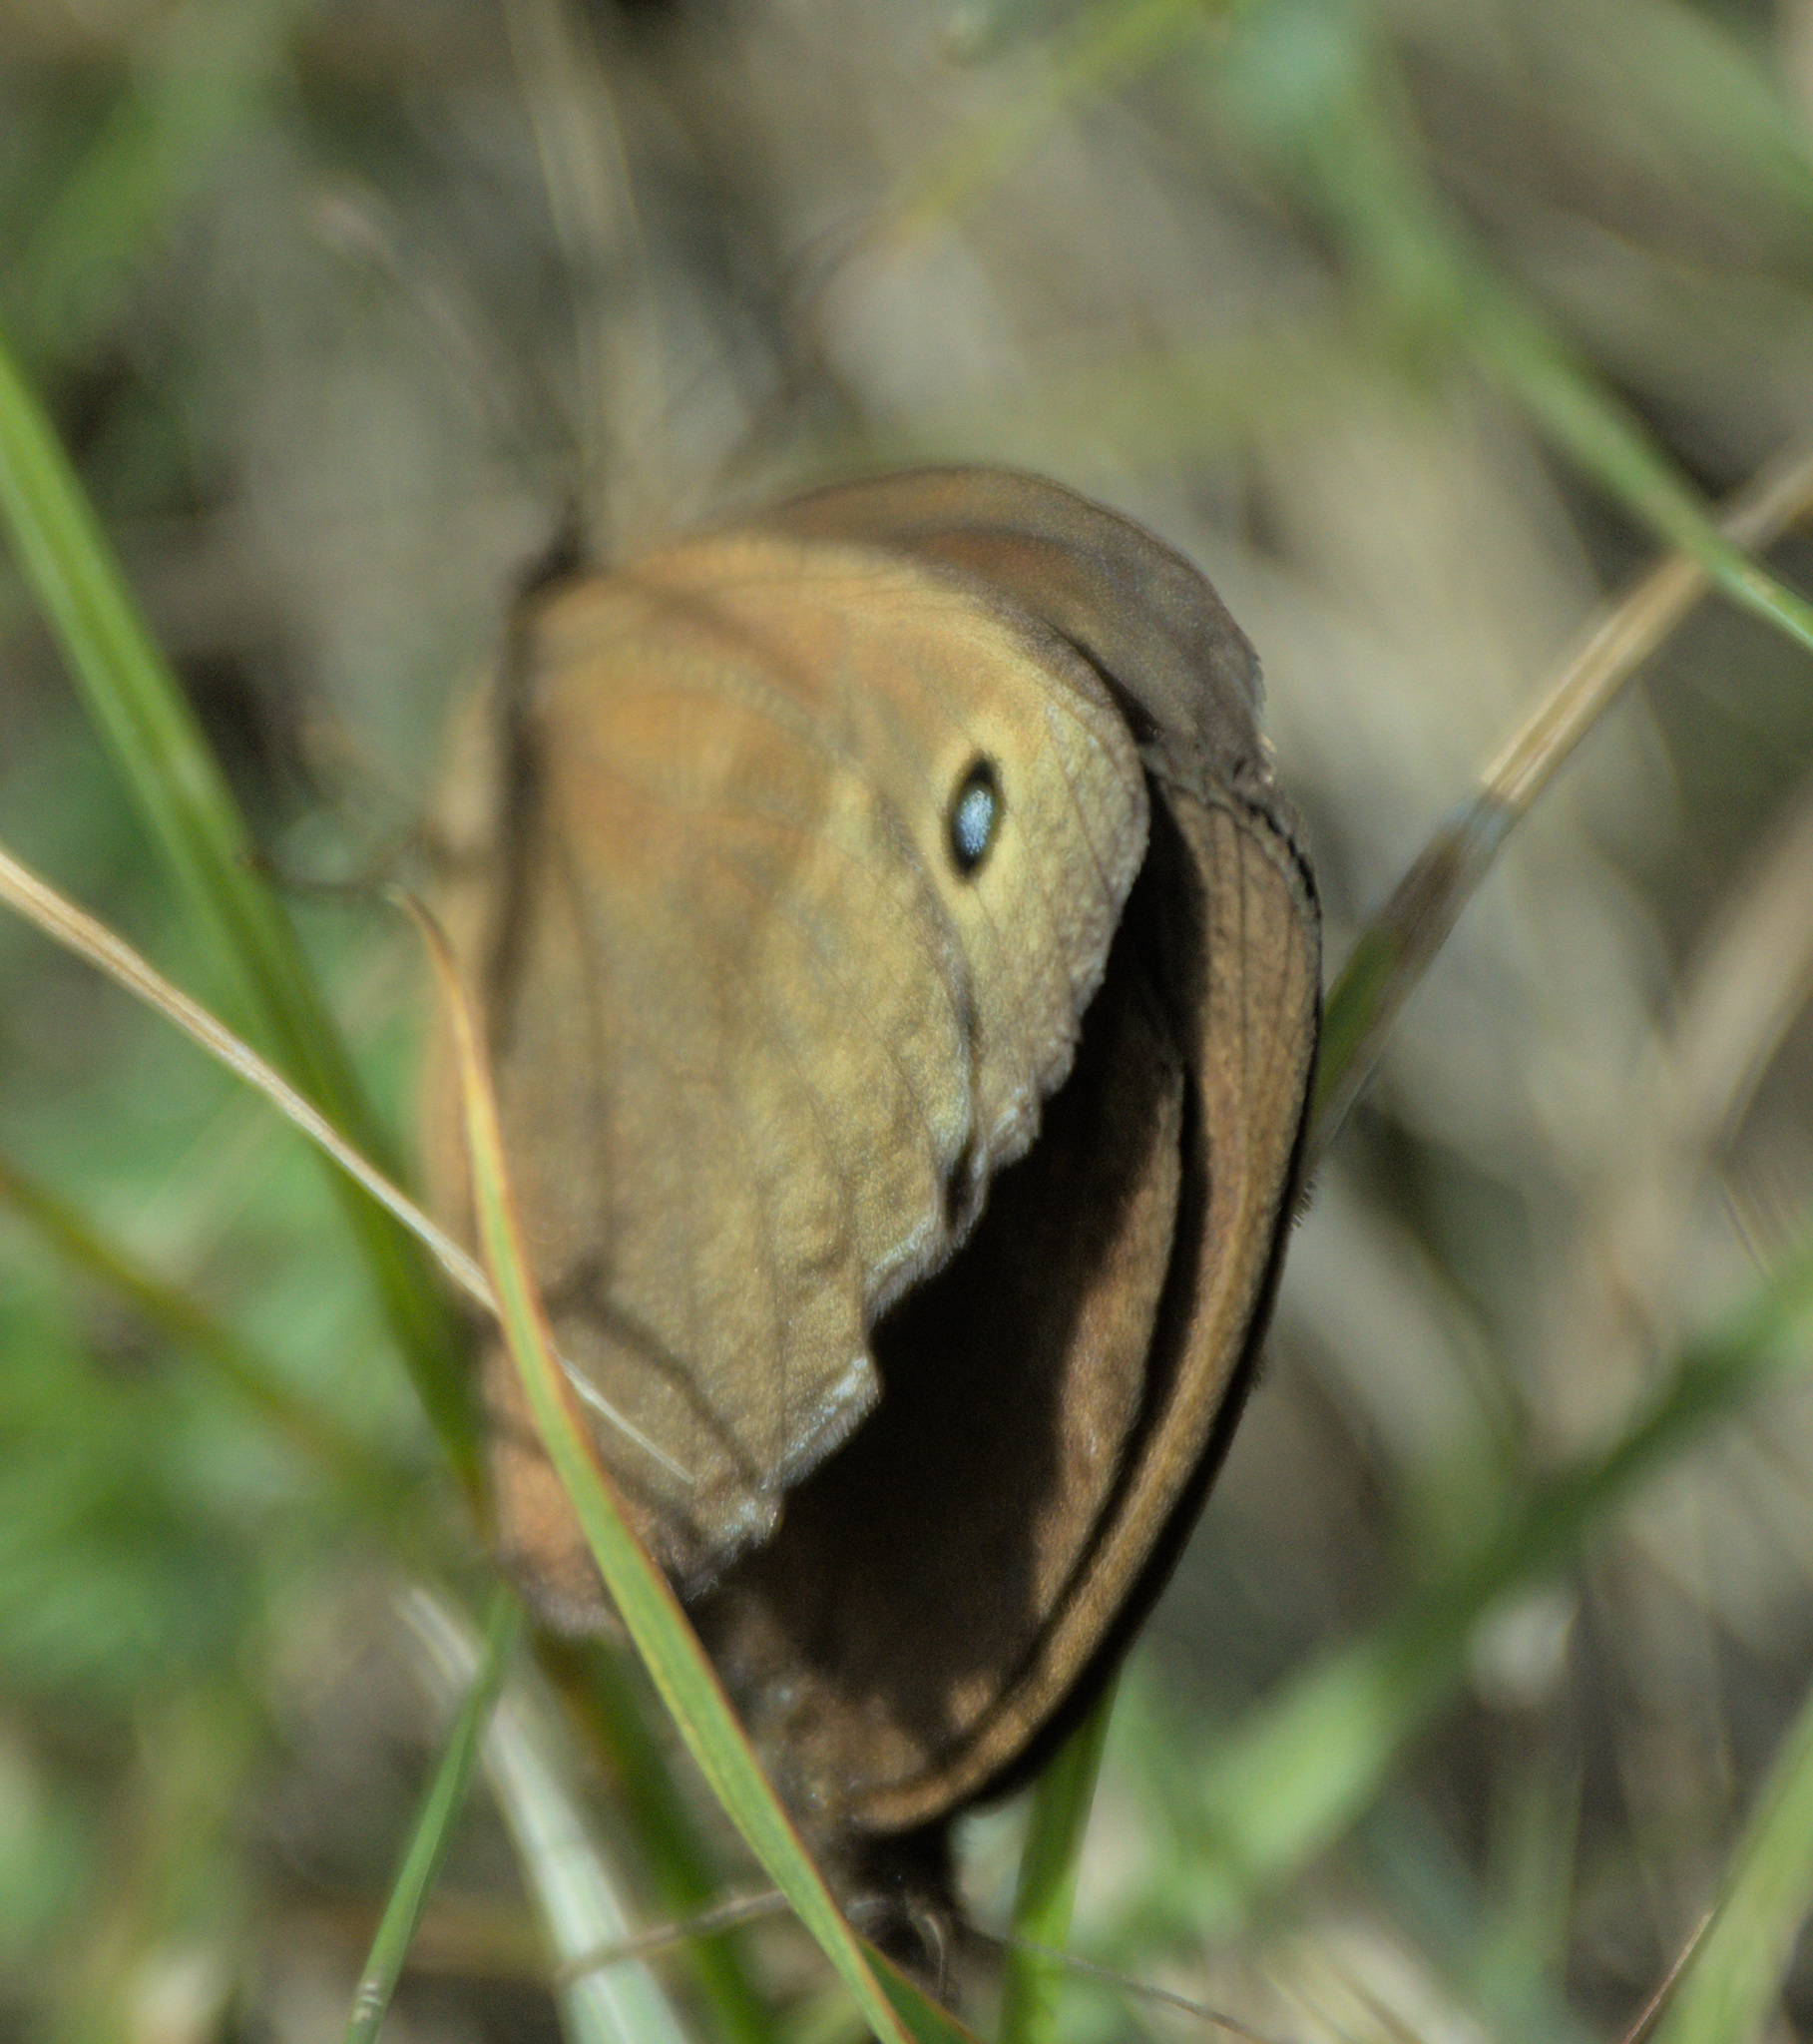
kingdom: Animalia
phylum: Arthropoda
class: Insecta
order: Lepidoptera
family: Nymphalidae
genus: Minois
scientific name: Minois dryas
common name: Dryad
